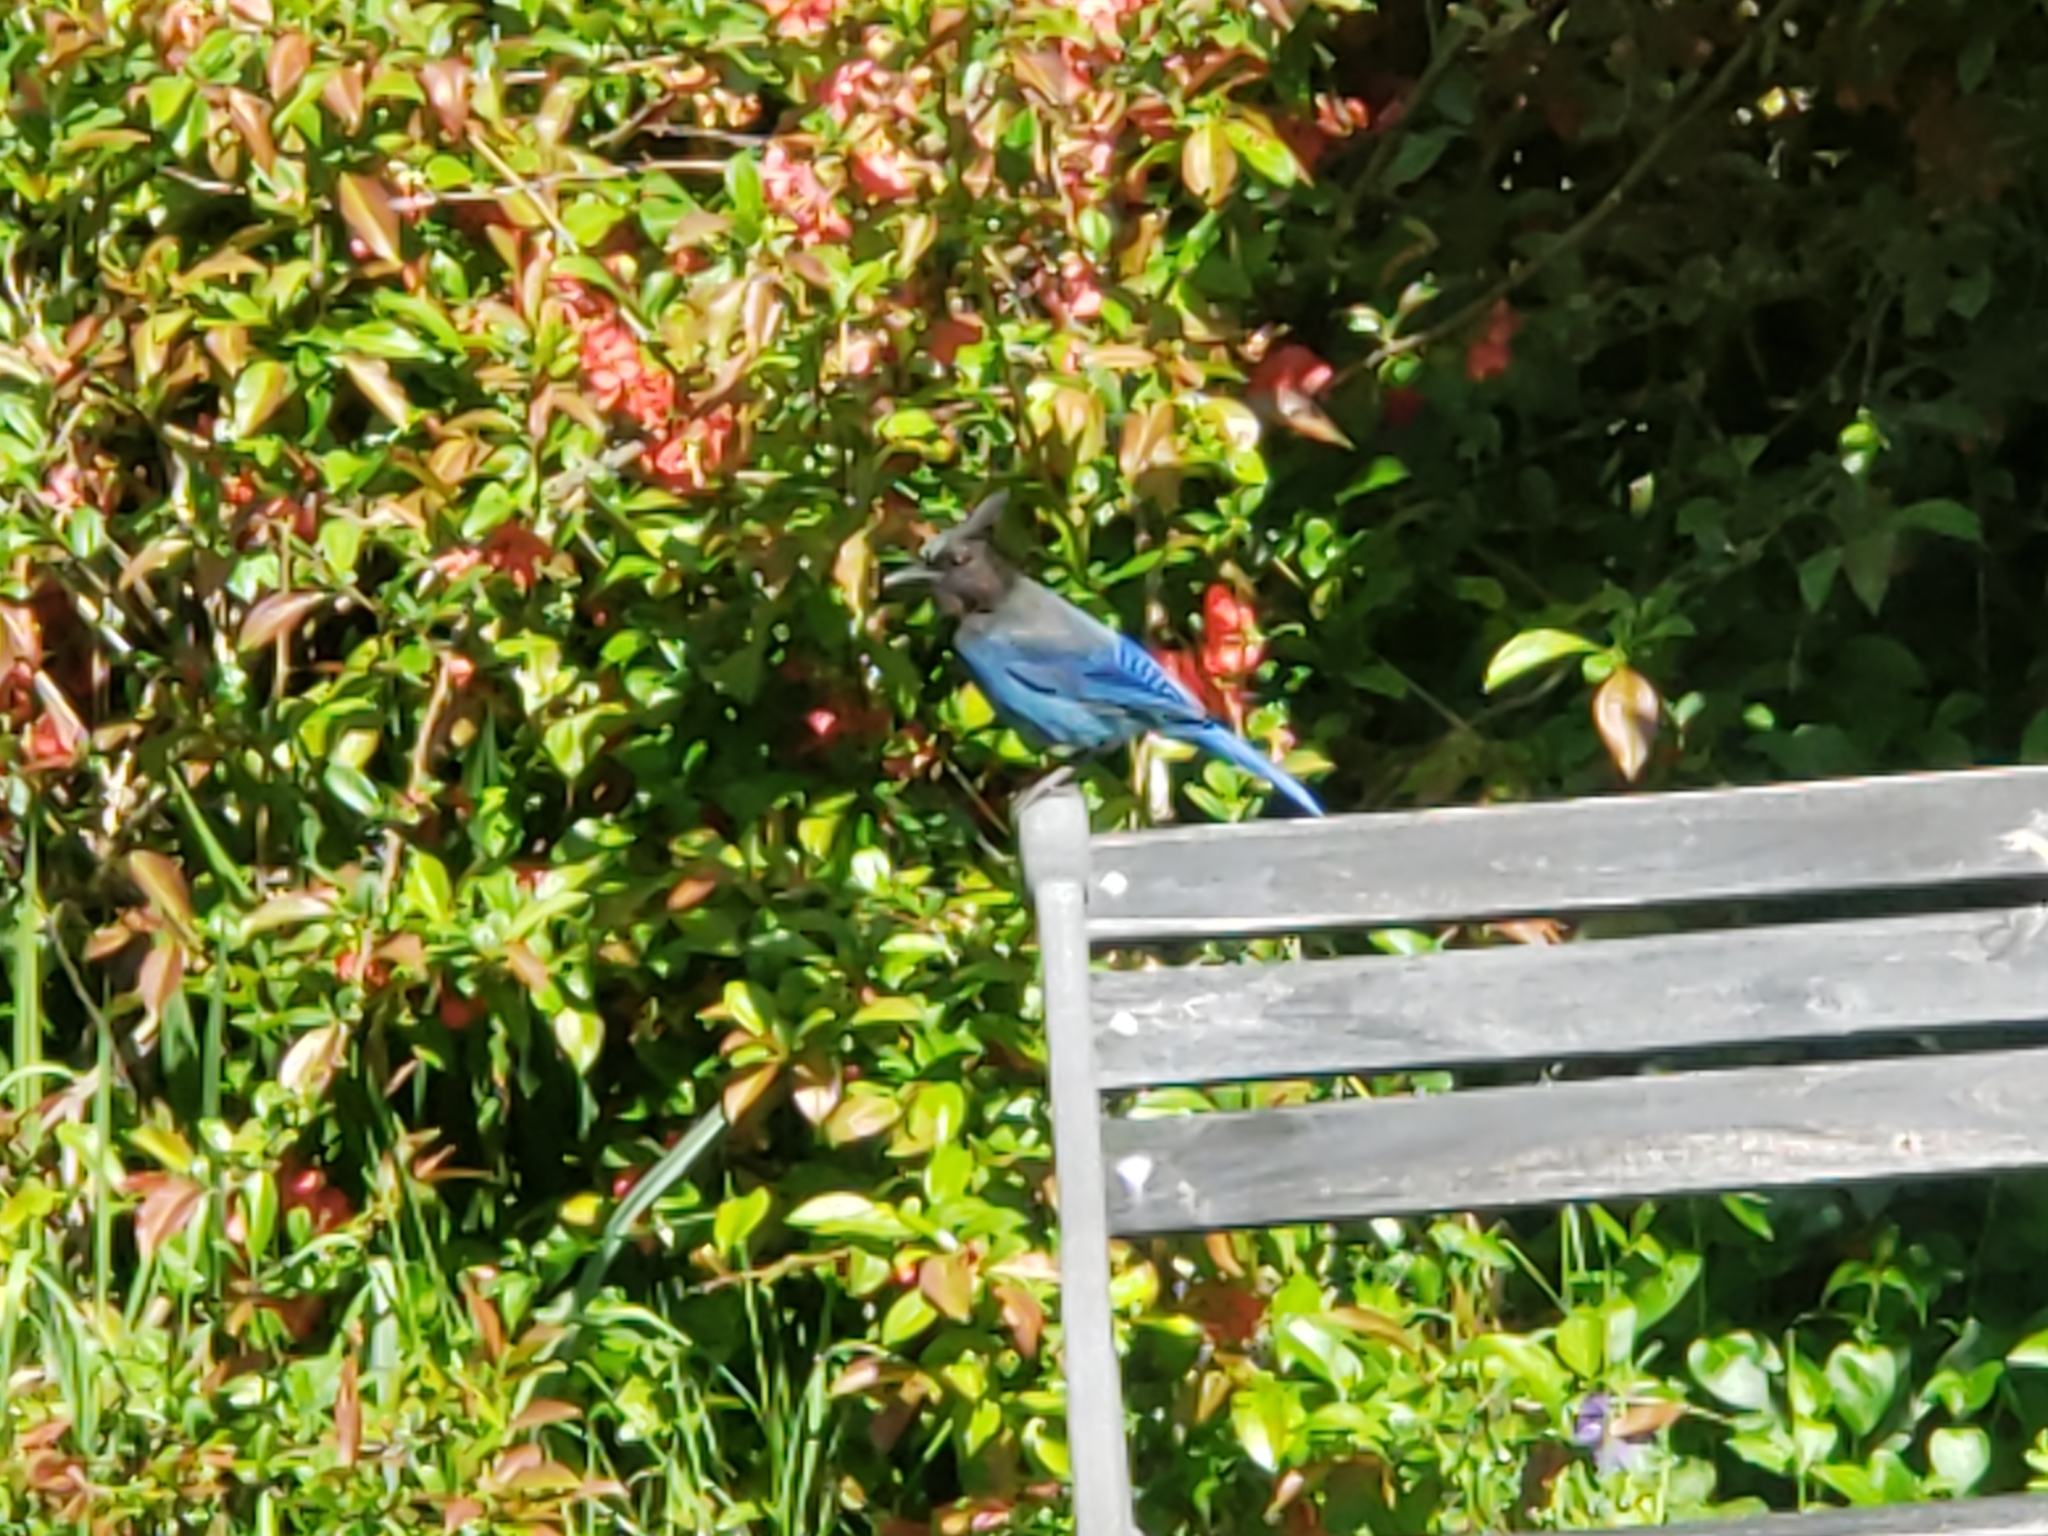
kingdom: Animalia
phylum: Chordata
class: Aves
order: Passeriformes
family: Corvidae
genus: Cyanocitta
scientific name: Cyanocitta stelleri
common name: Steller's jay
